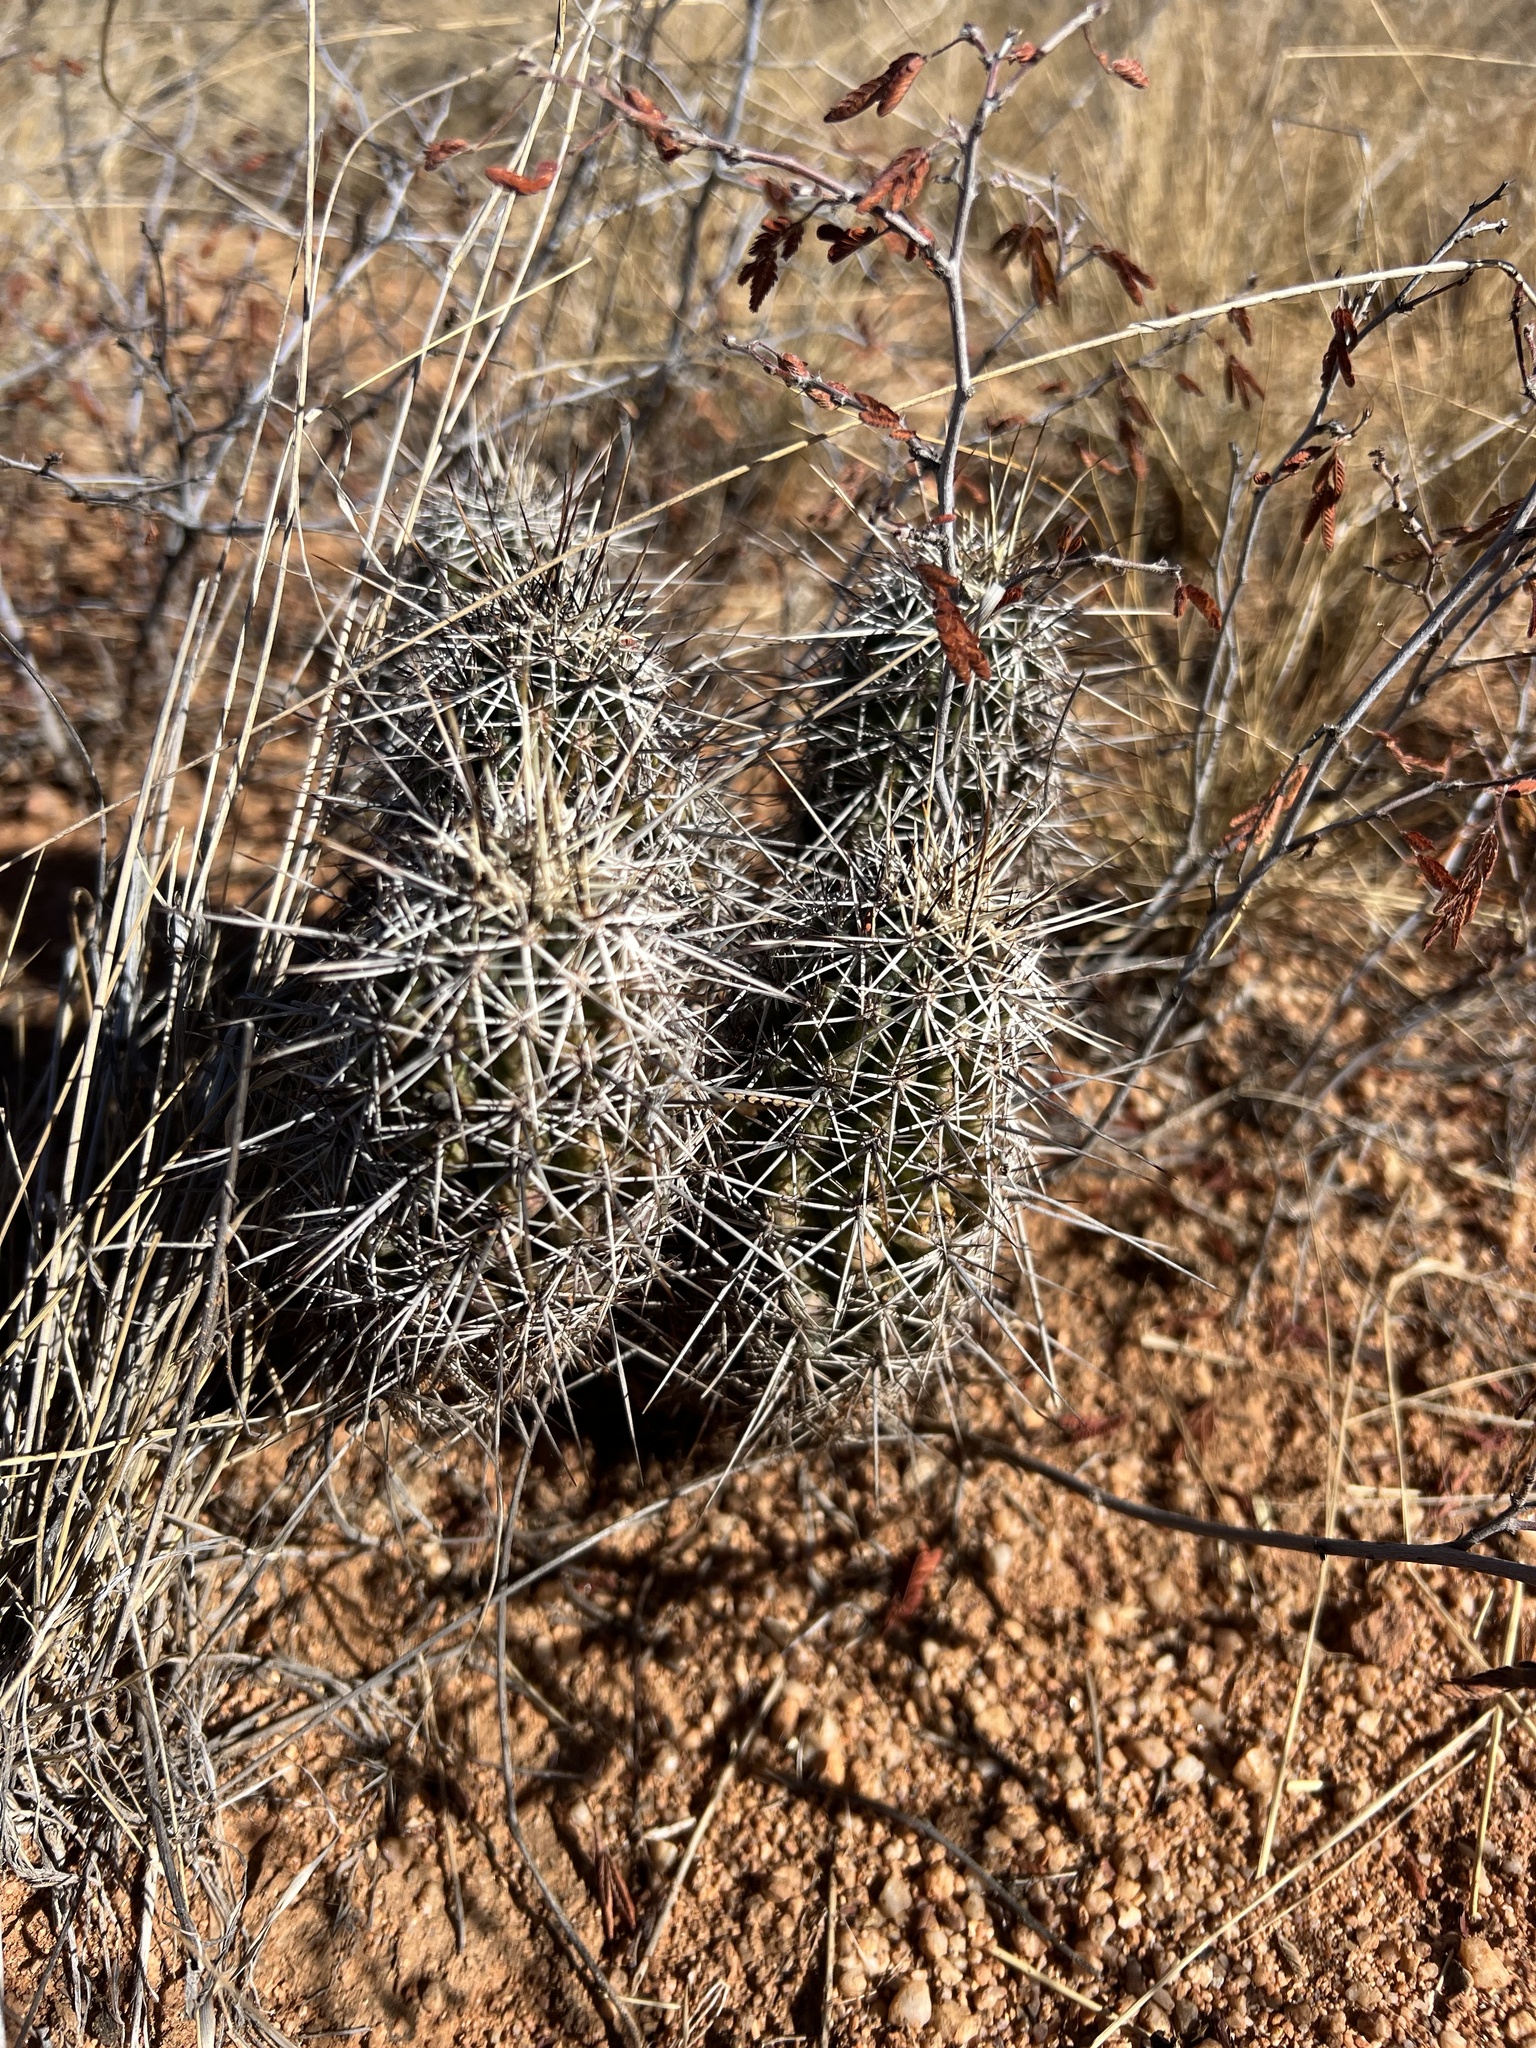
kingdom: Plantae
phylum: Tracheophyta
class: Magnoliopsida
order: Caryophyllales
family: Cactaceae
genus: Echinocereus
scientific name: Echinocereus fasciculatus
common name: Bundle hedgehog
